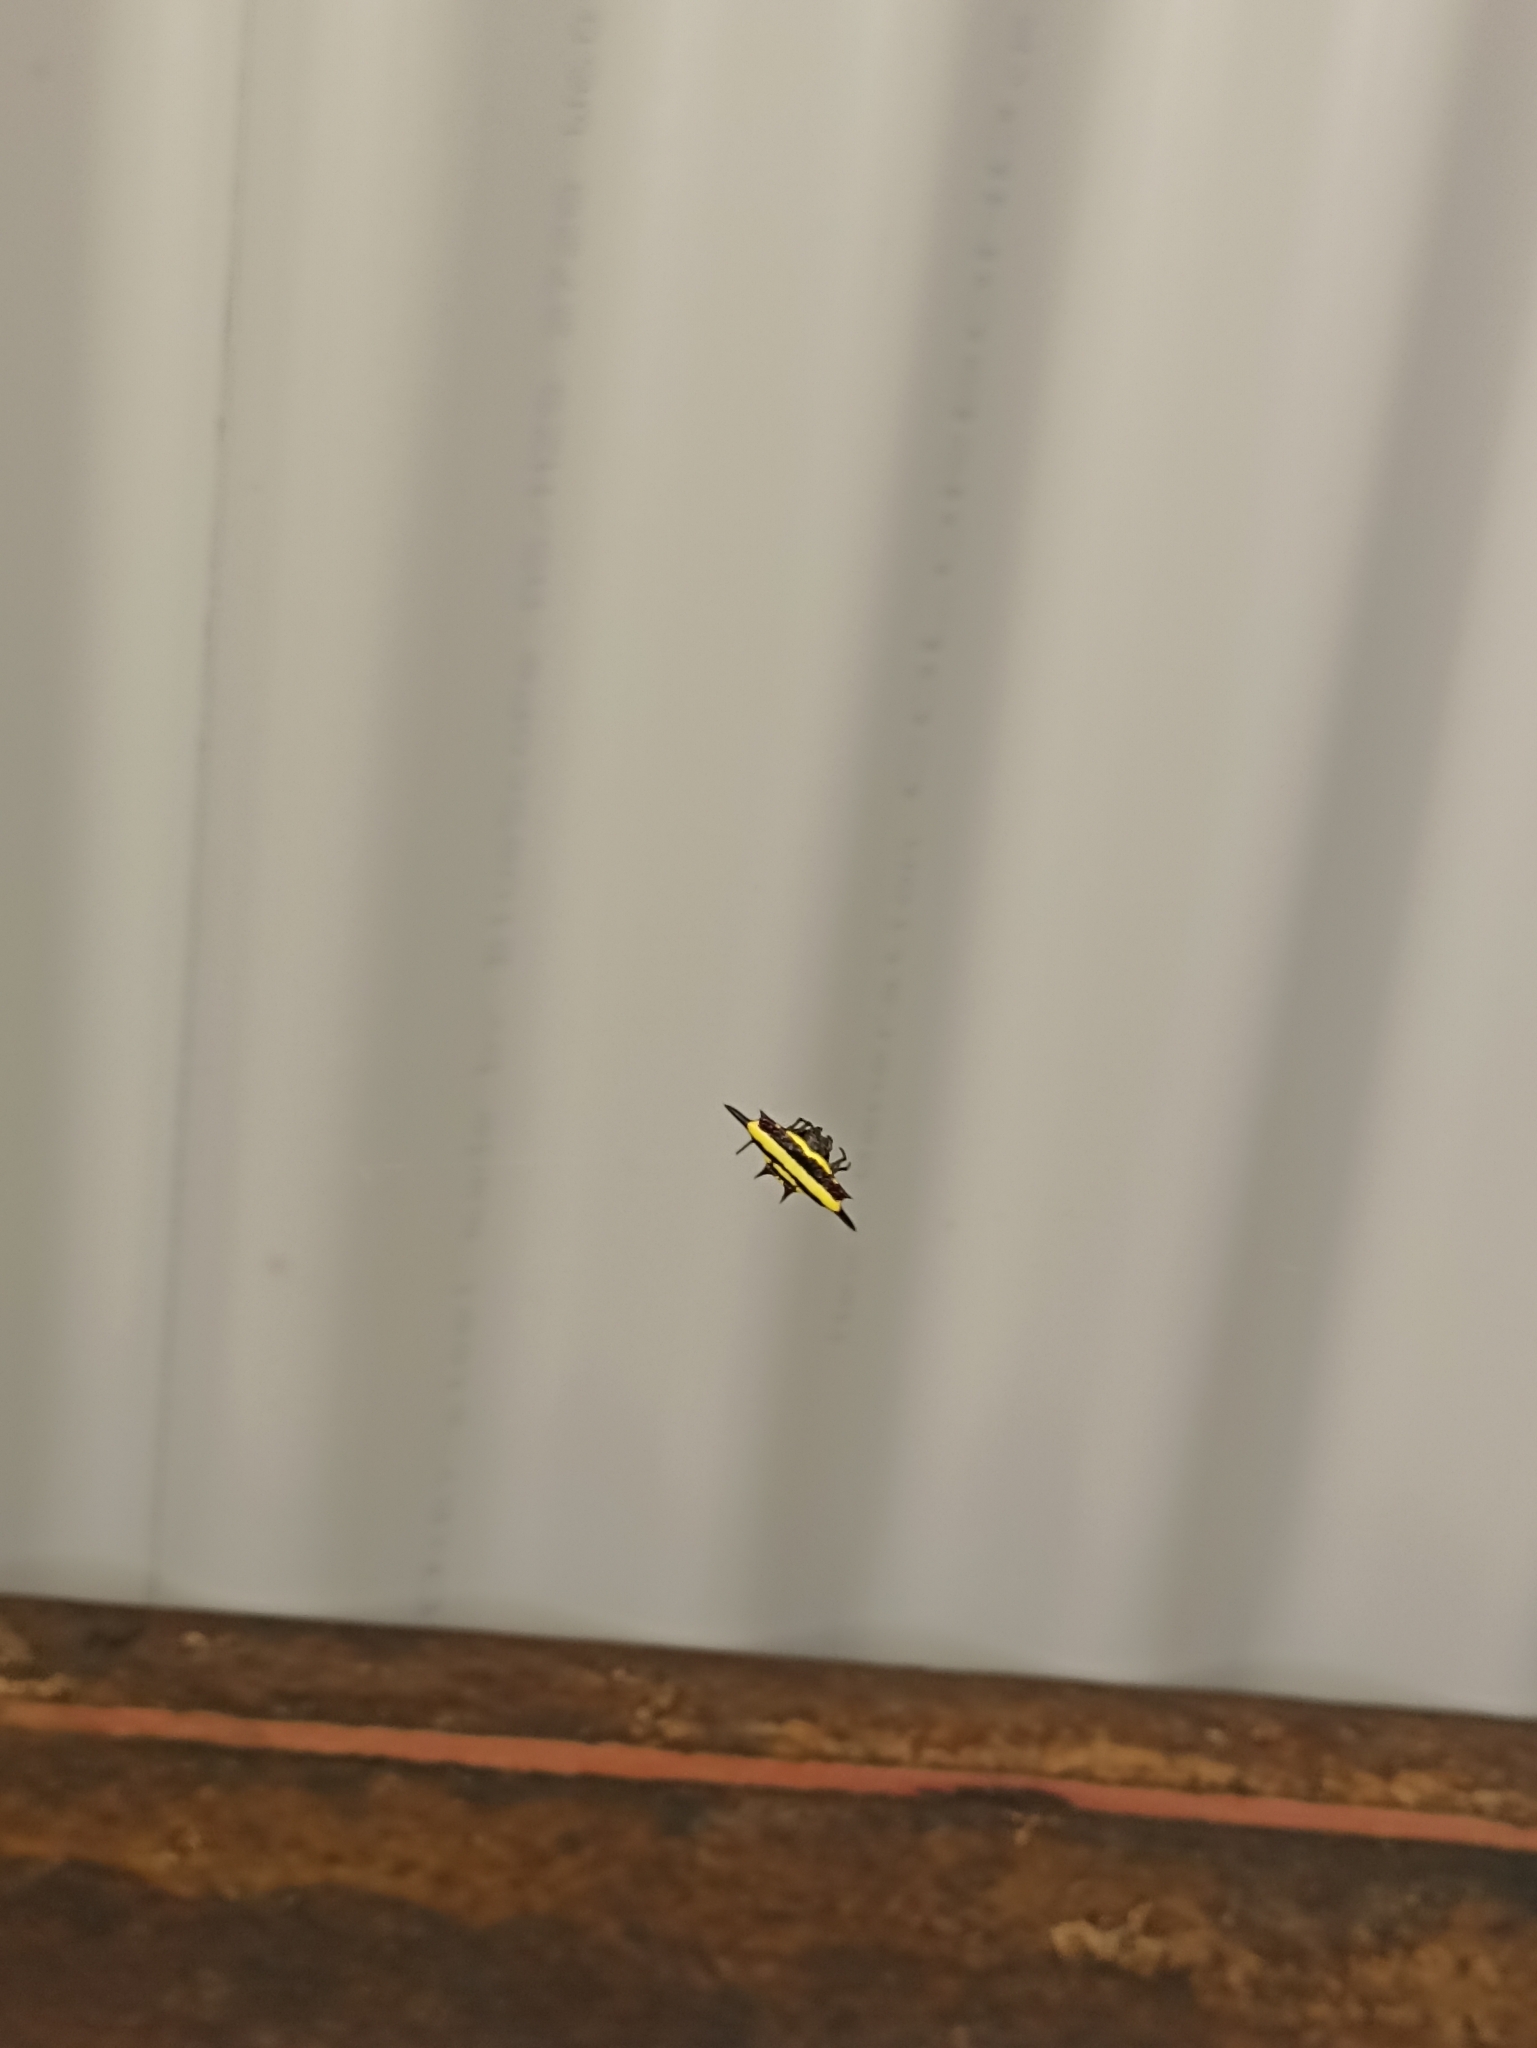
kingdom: Animalia
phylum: Arthropoda
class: Arachnida
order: Araneae
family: Araneidae
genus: Gasteracantha
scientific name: Gasteracantha fornicata
